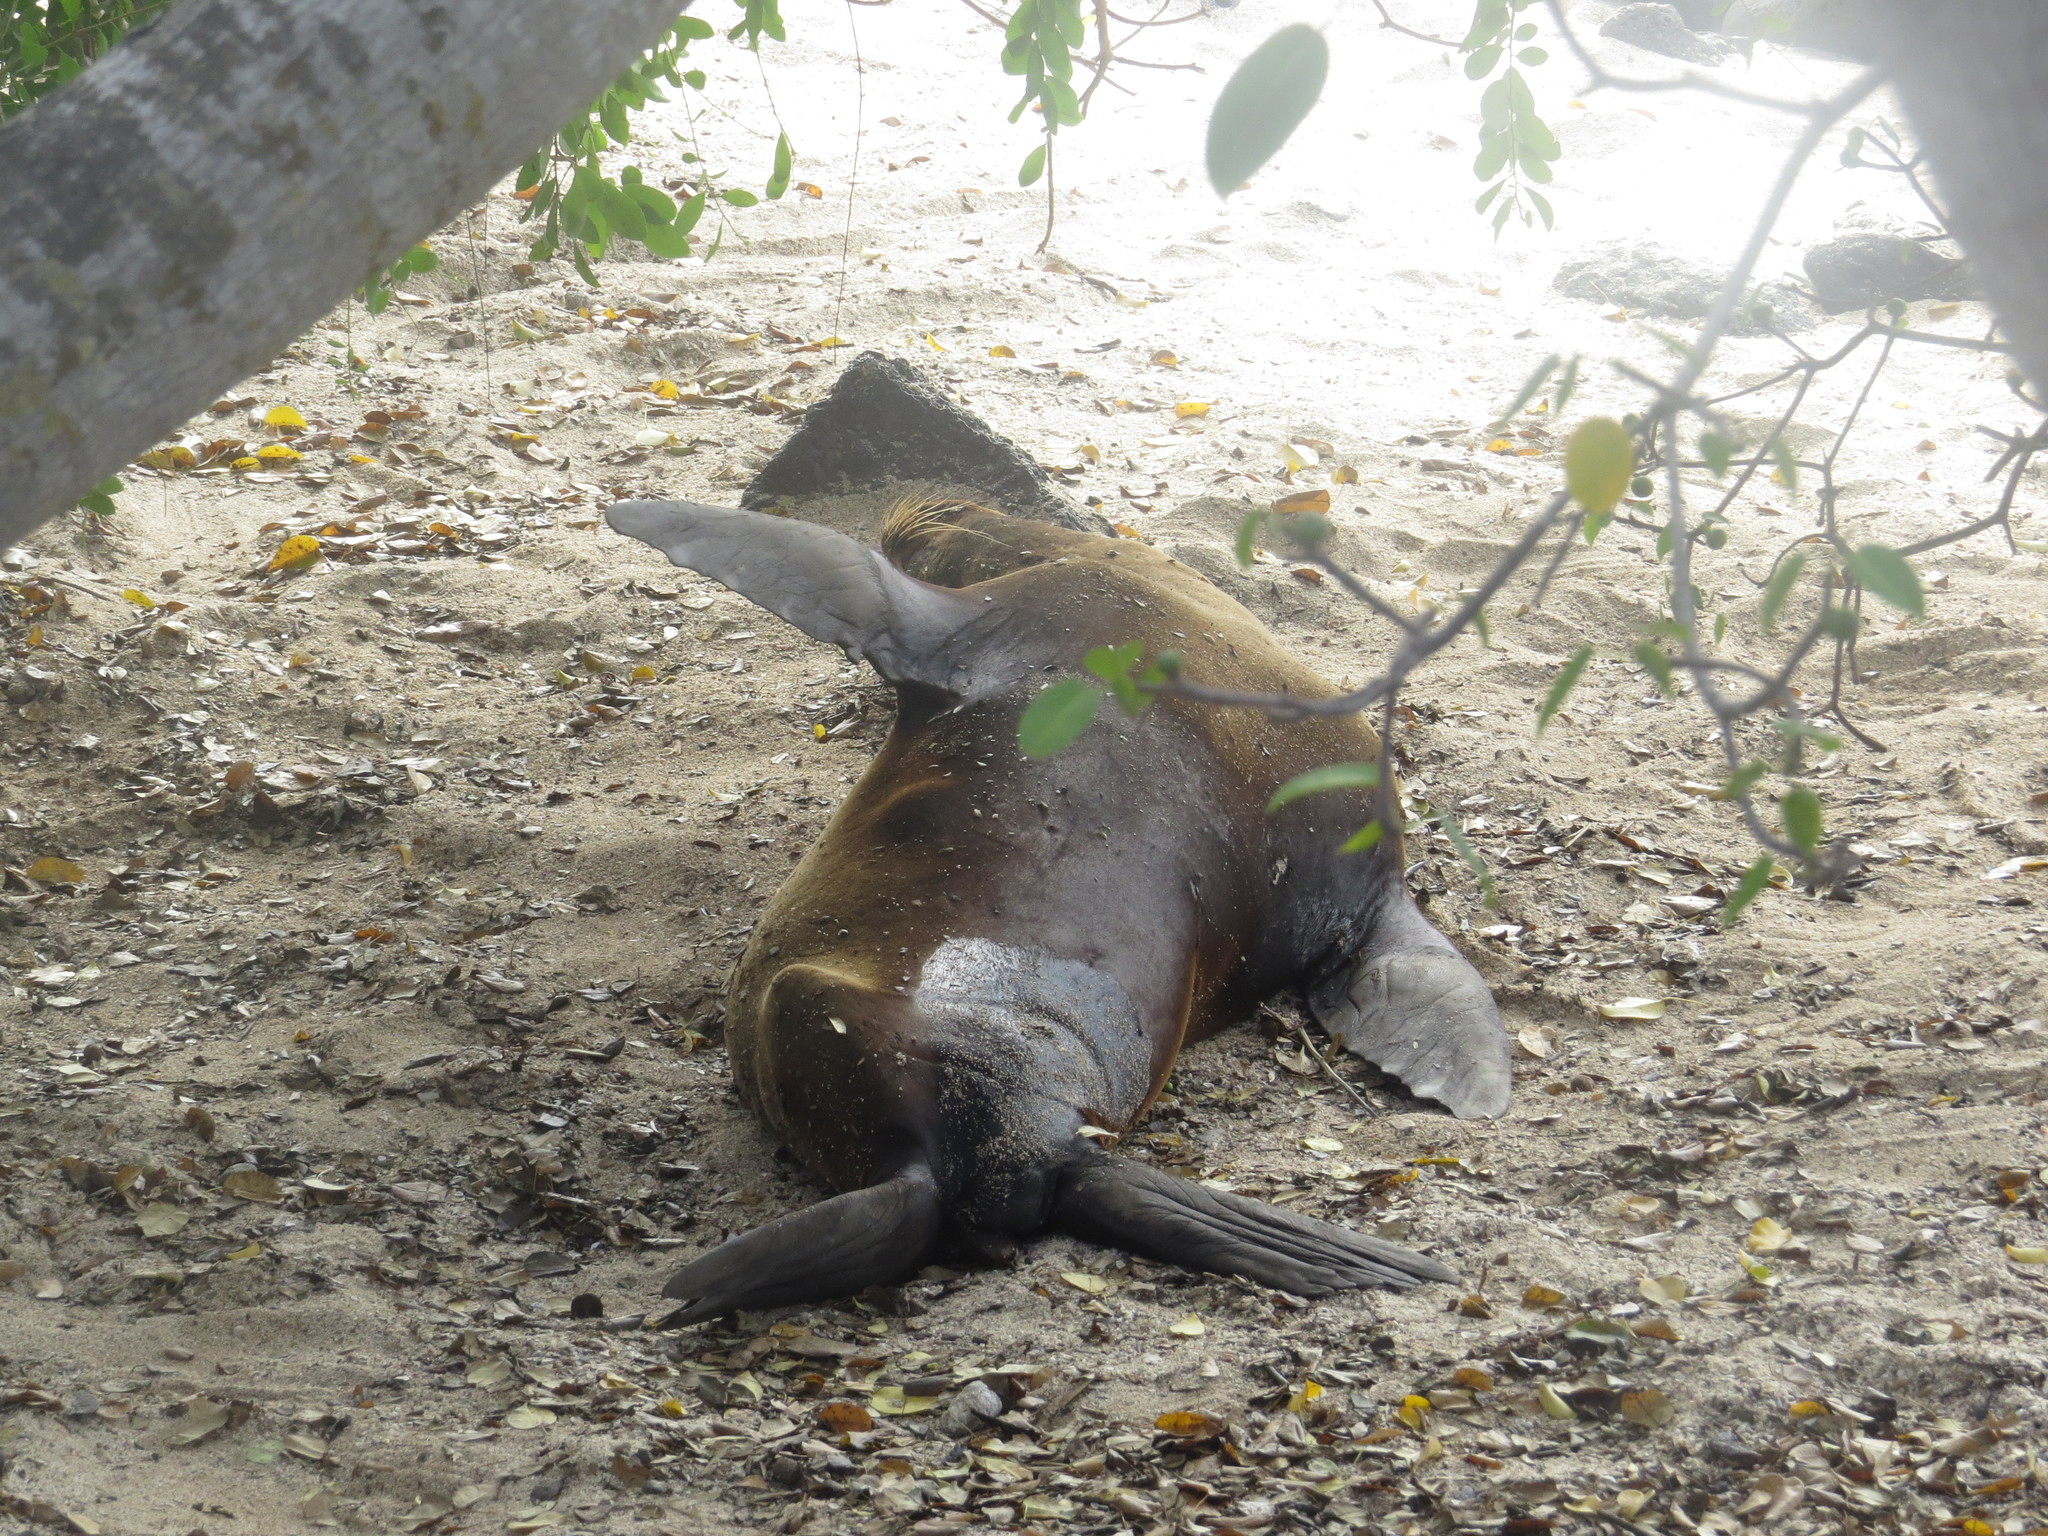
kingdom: Animalia
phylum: Chordata
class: Mammalia
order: Carnivora
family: Otariidae
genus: Zalophus
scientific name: Zalophus wollebaeki
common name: Galapagos sea lion
